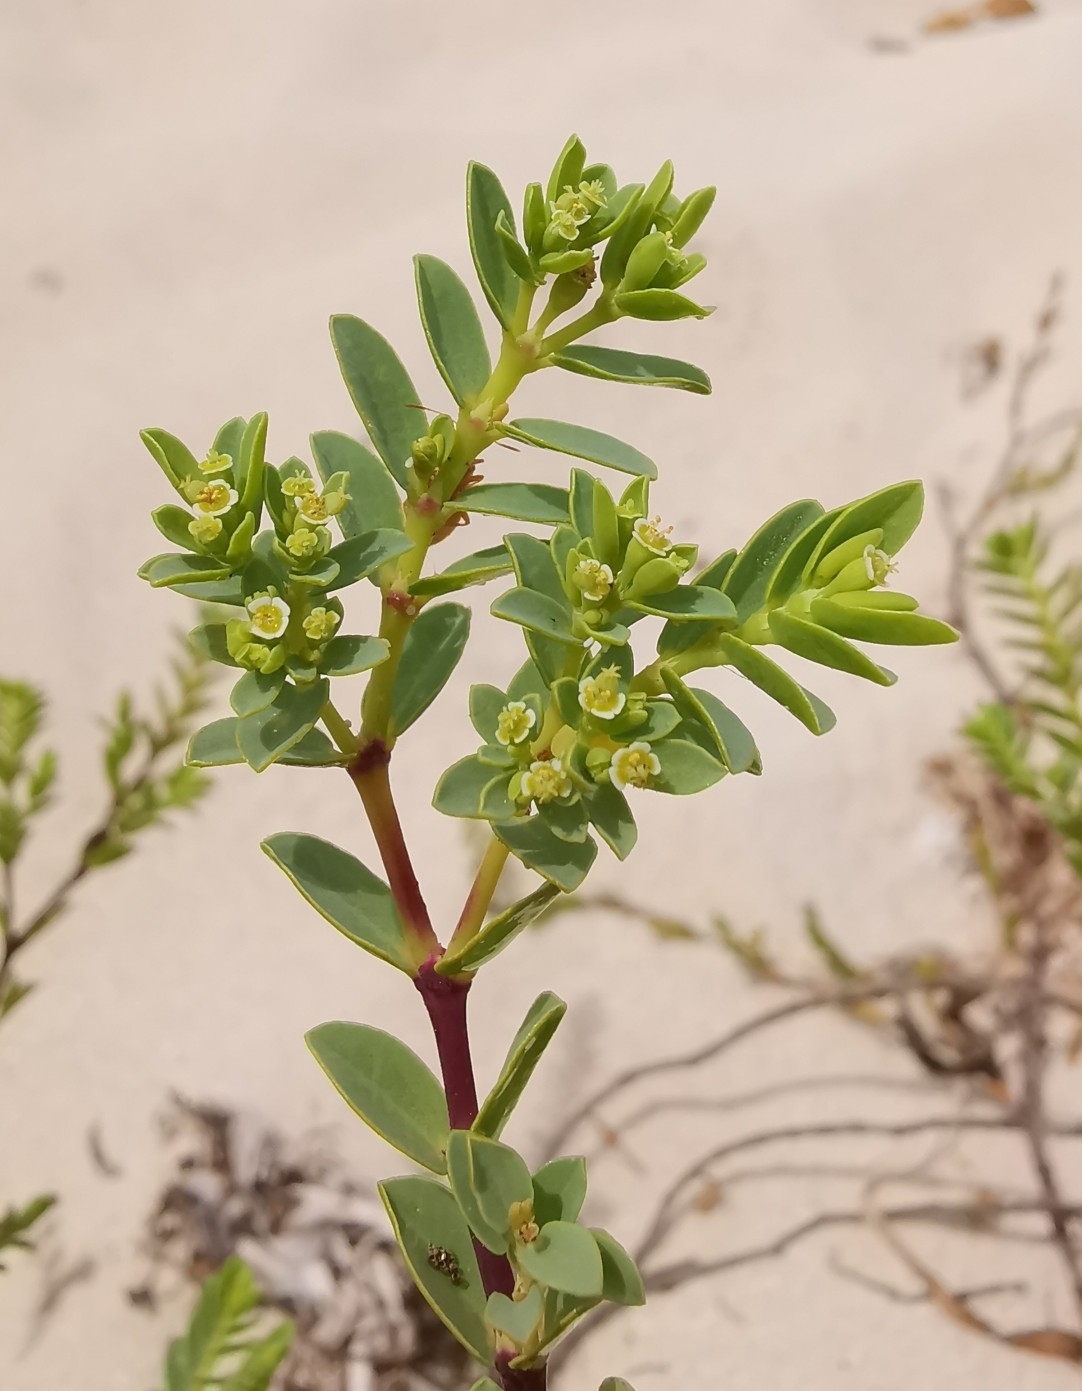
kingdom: Plantae
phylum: Tracheophyta
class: Magnoliopsida
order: Malpighiales
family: Euphorbiaceae
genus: Euphorbia
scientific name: Euphorbia mesembryanthemifolia
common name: Coastal beach sandmat
